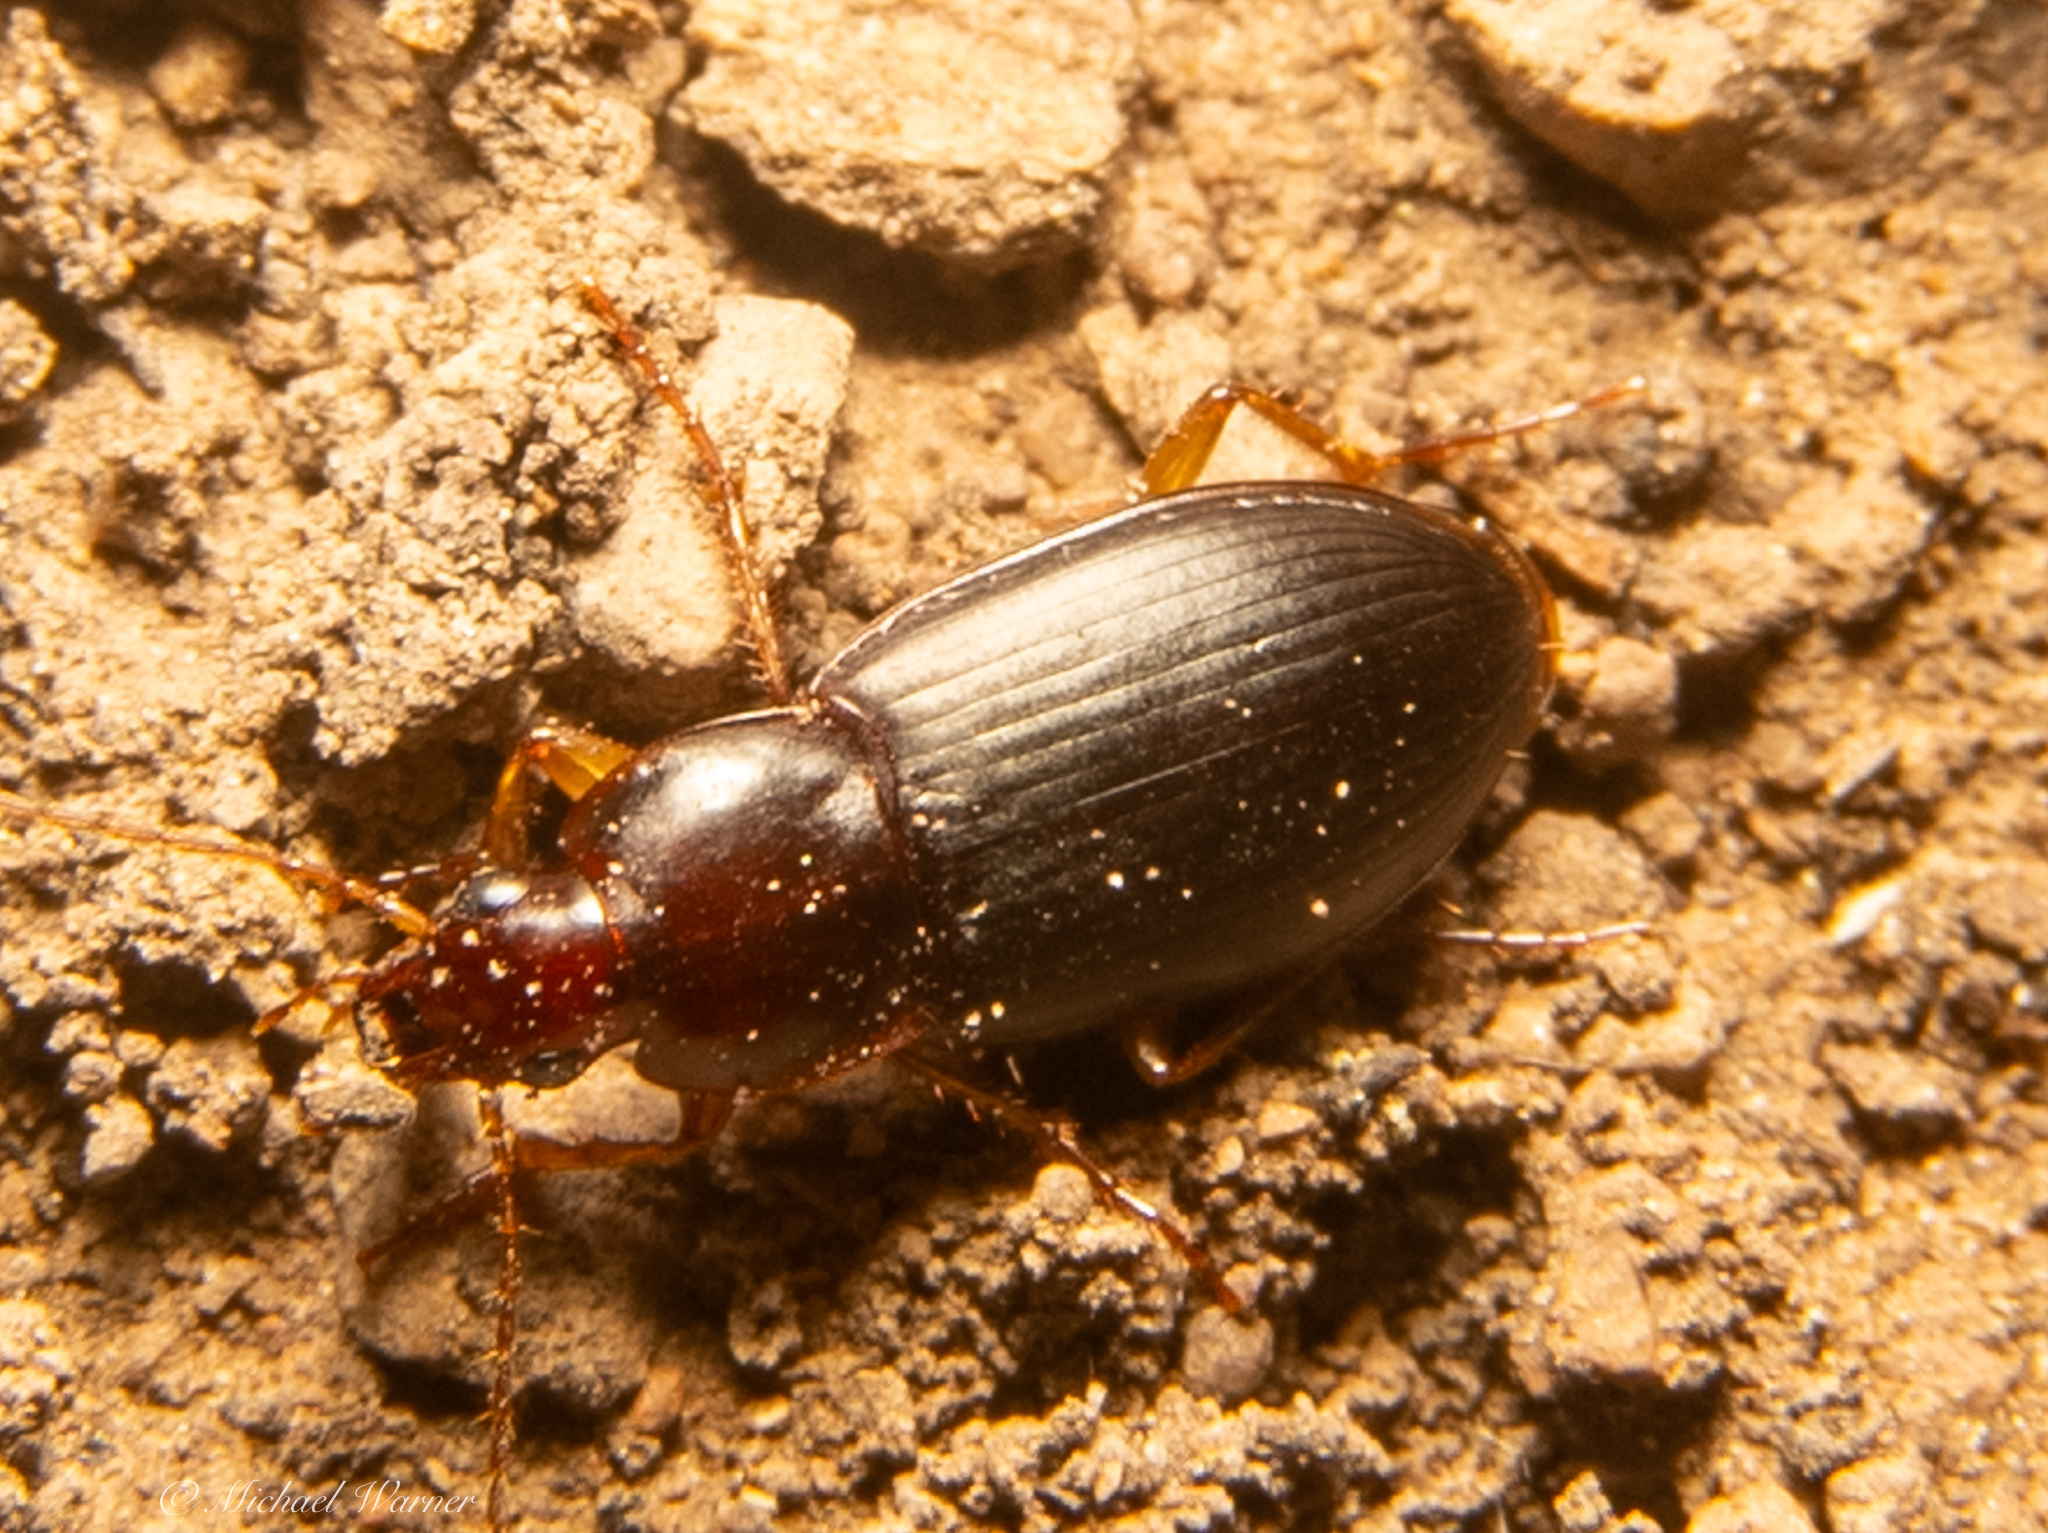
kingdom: Animalia
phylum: Arthropoda
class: Insecta
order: Coleoptera
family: Carabidae
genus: Calathus
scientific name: Calathus ruficollis
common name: Red-collared harp ground beetle
